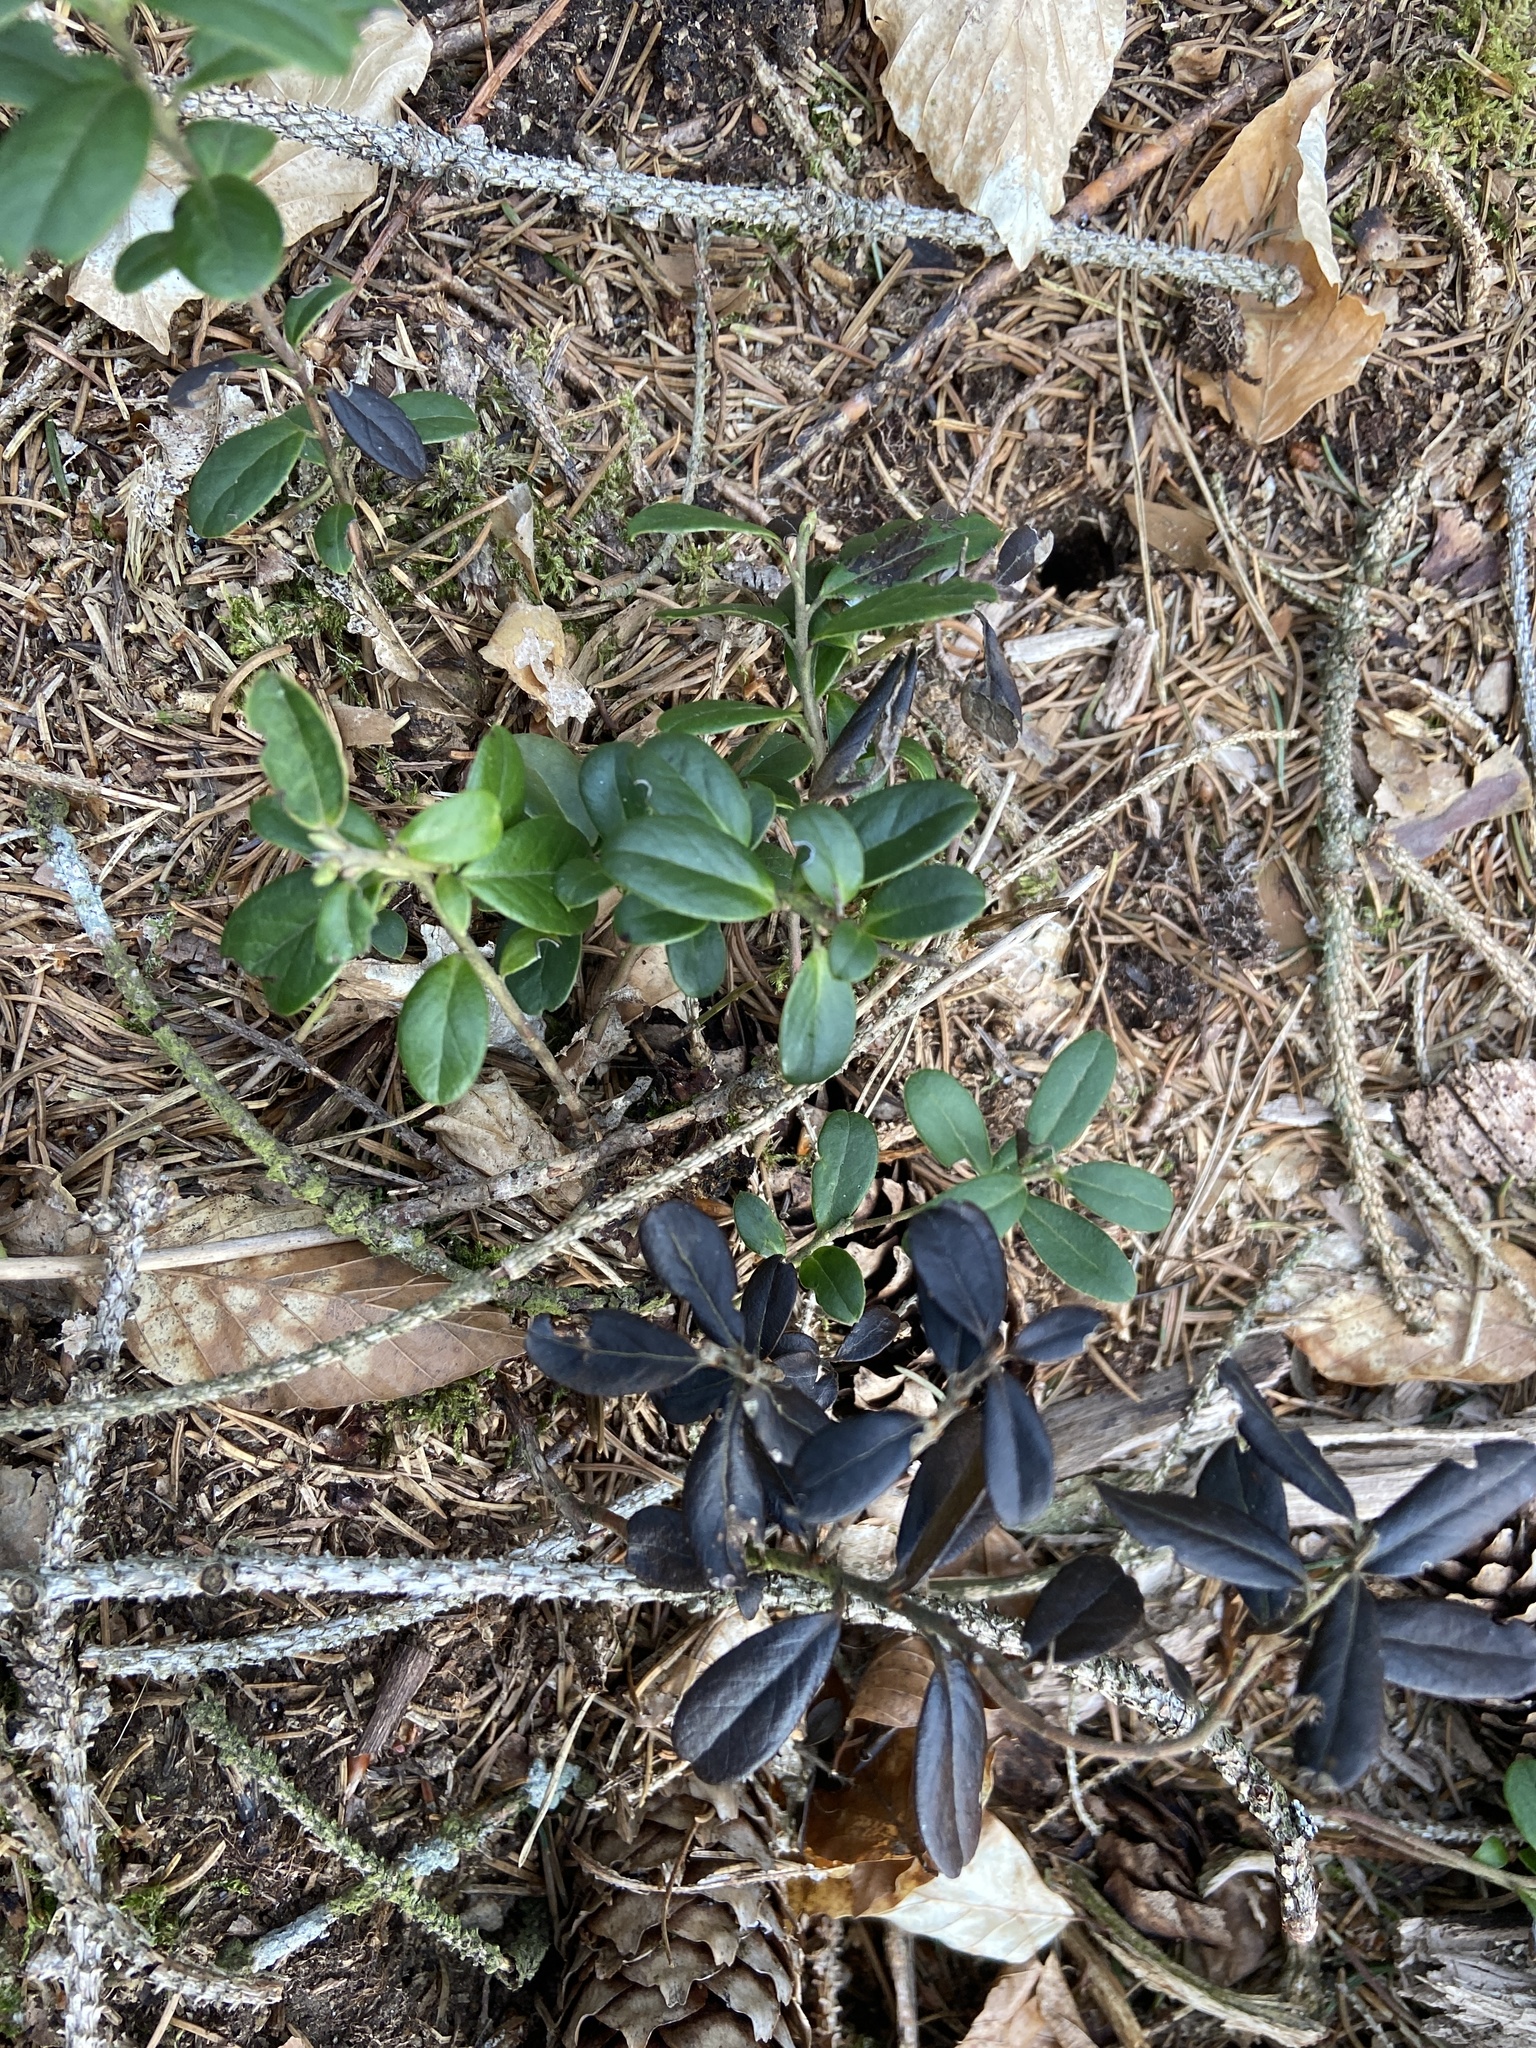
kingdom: Plantae
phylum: Tracheophyta
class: Magnoliopsida
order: Ericales
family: Ericaceae
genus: Vaccinium
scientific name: Vaccinium vitis-idaea
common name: Cowberry
